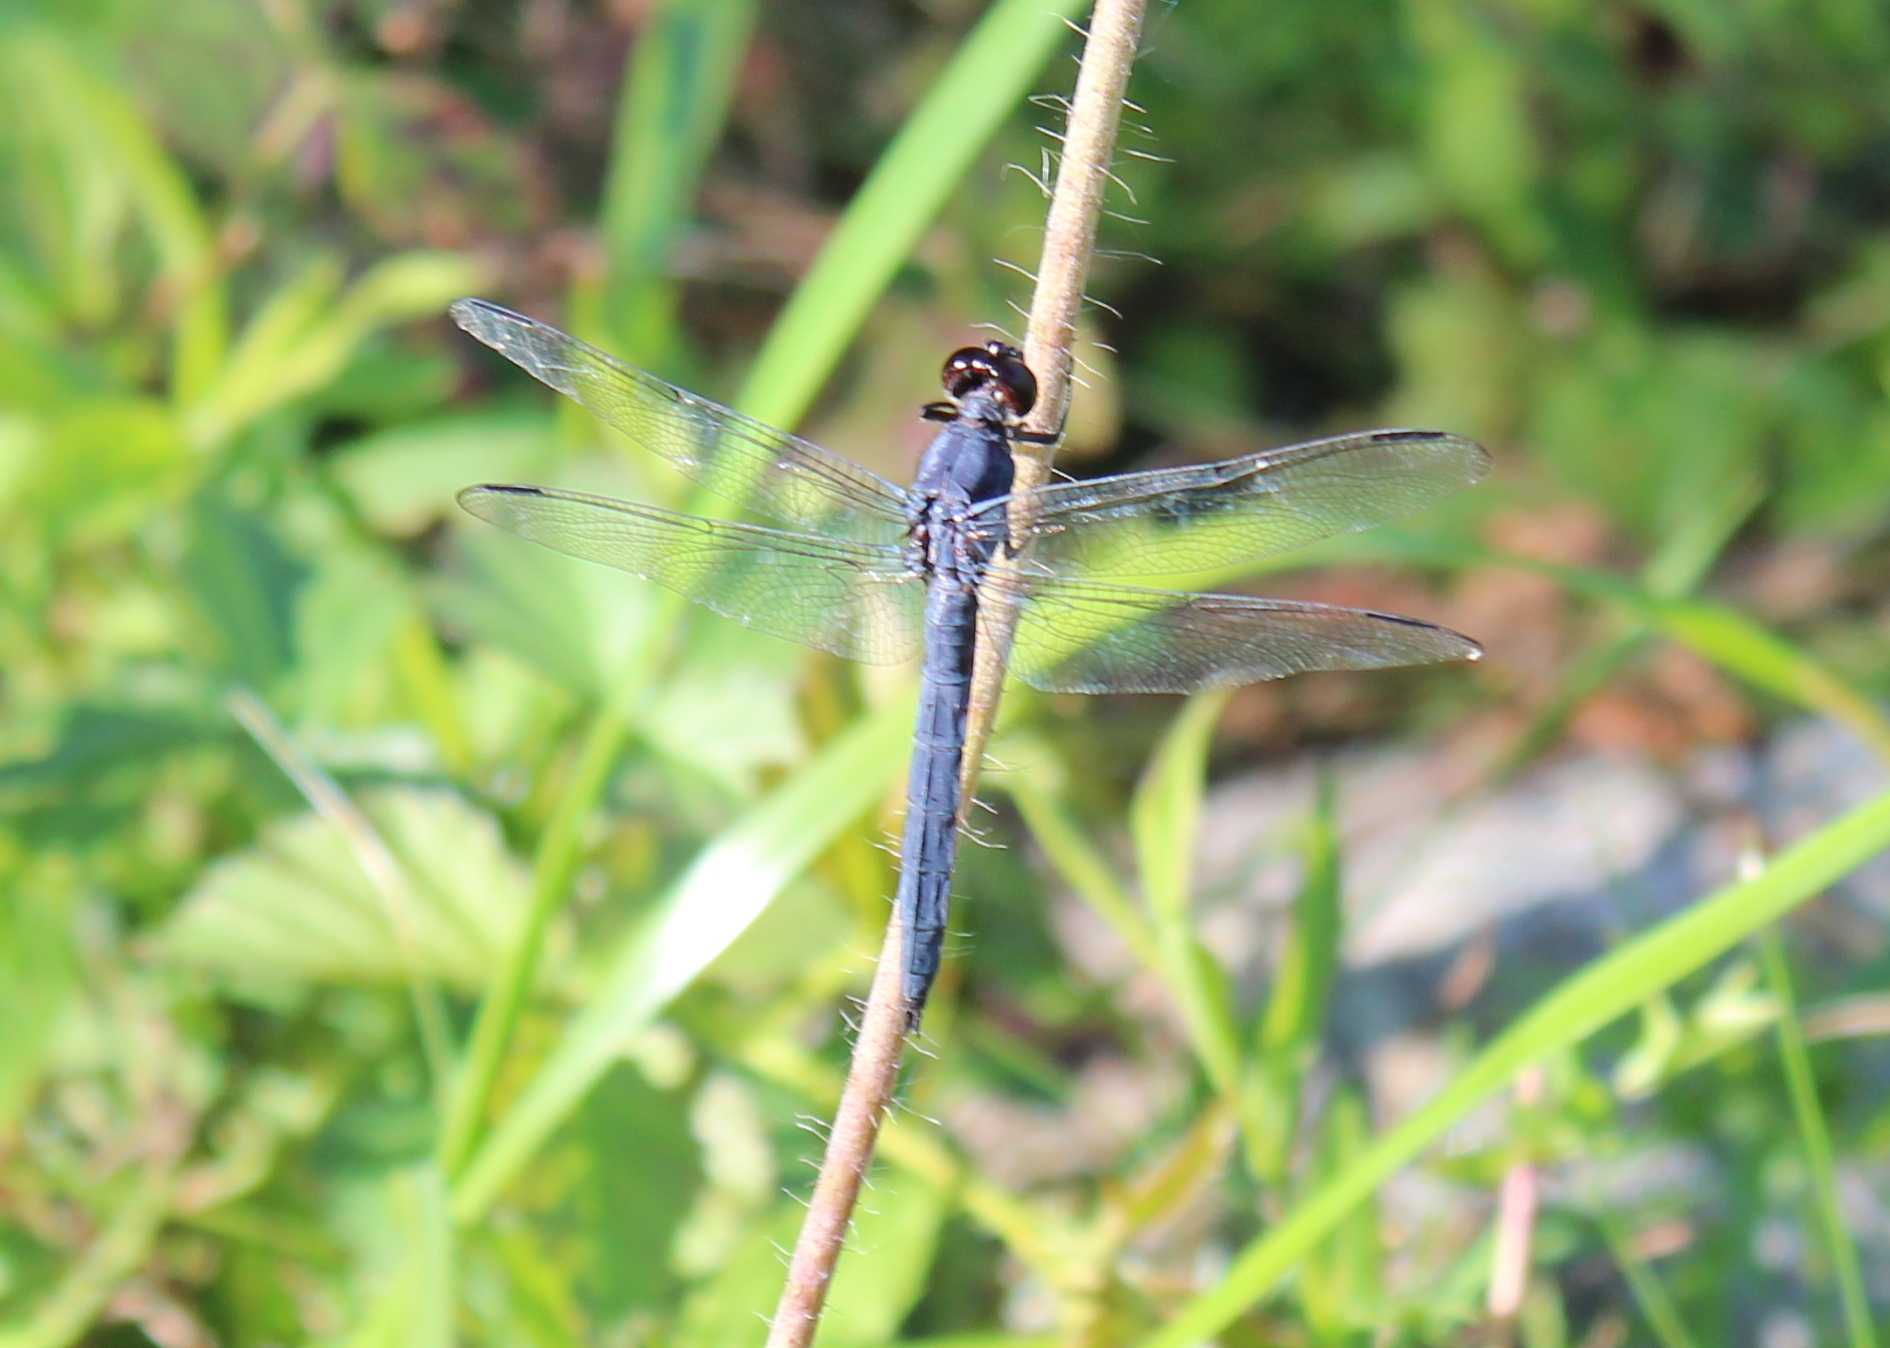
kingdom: Animalia
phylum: Arthropoda
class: Insecta
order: Odonata
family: Libellulidae
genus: Libellula
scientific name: Libellula incesta
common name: Slaty skimmer
